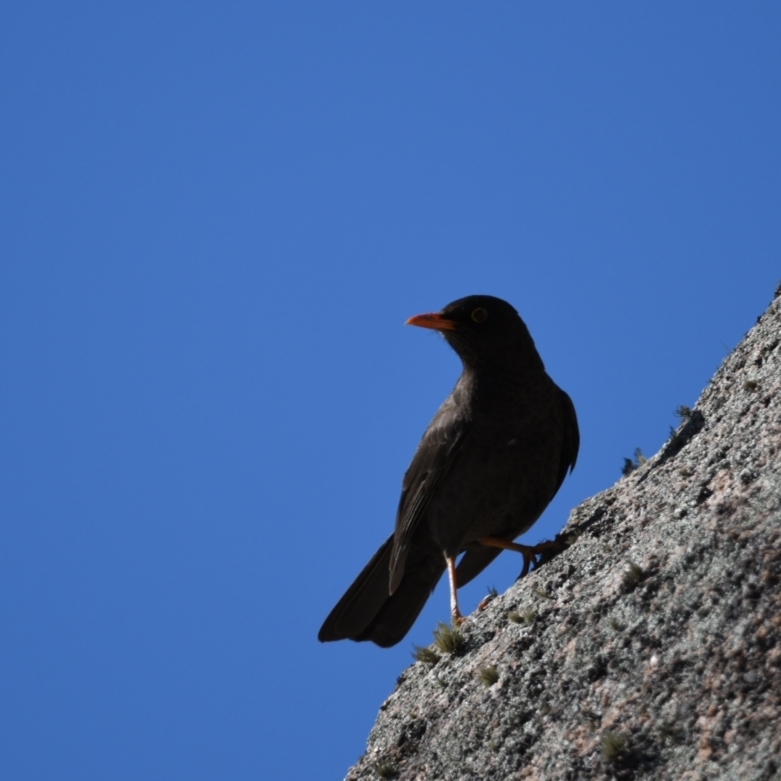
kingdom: Animalia
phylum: Chordata
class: Aves
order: Passeriformes
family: Turdidae
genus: Turdus
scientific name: Turdus chiguanco
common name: Chiguanco thrush
